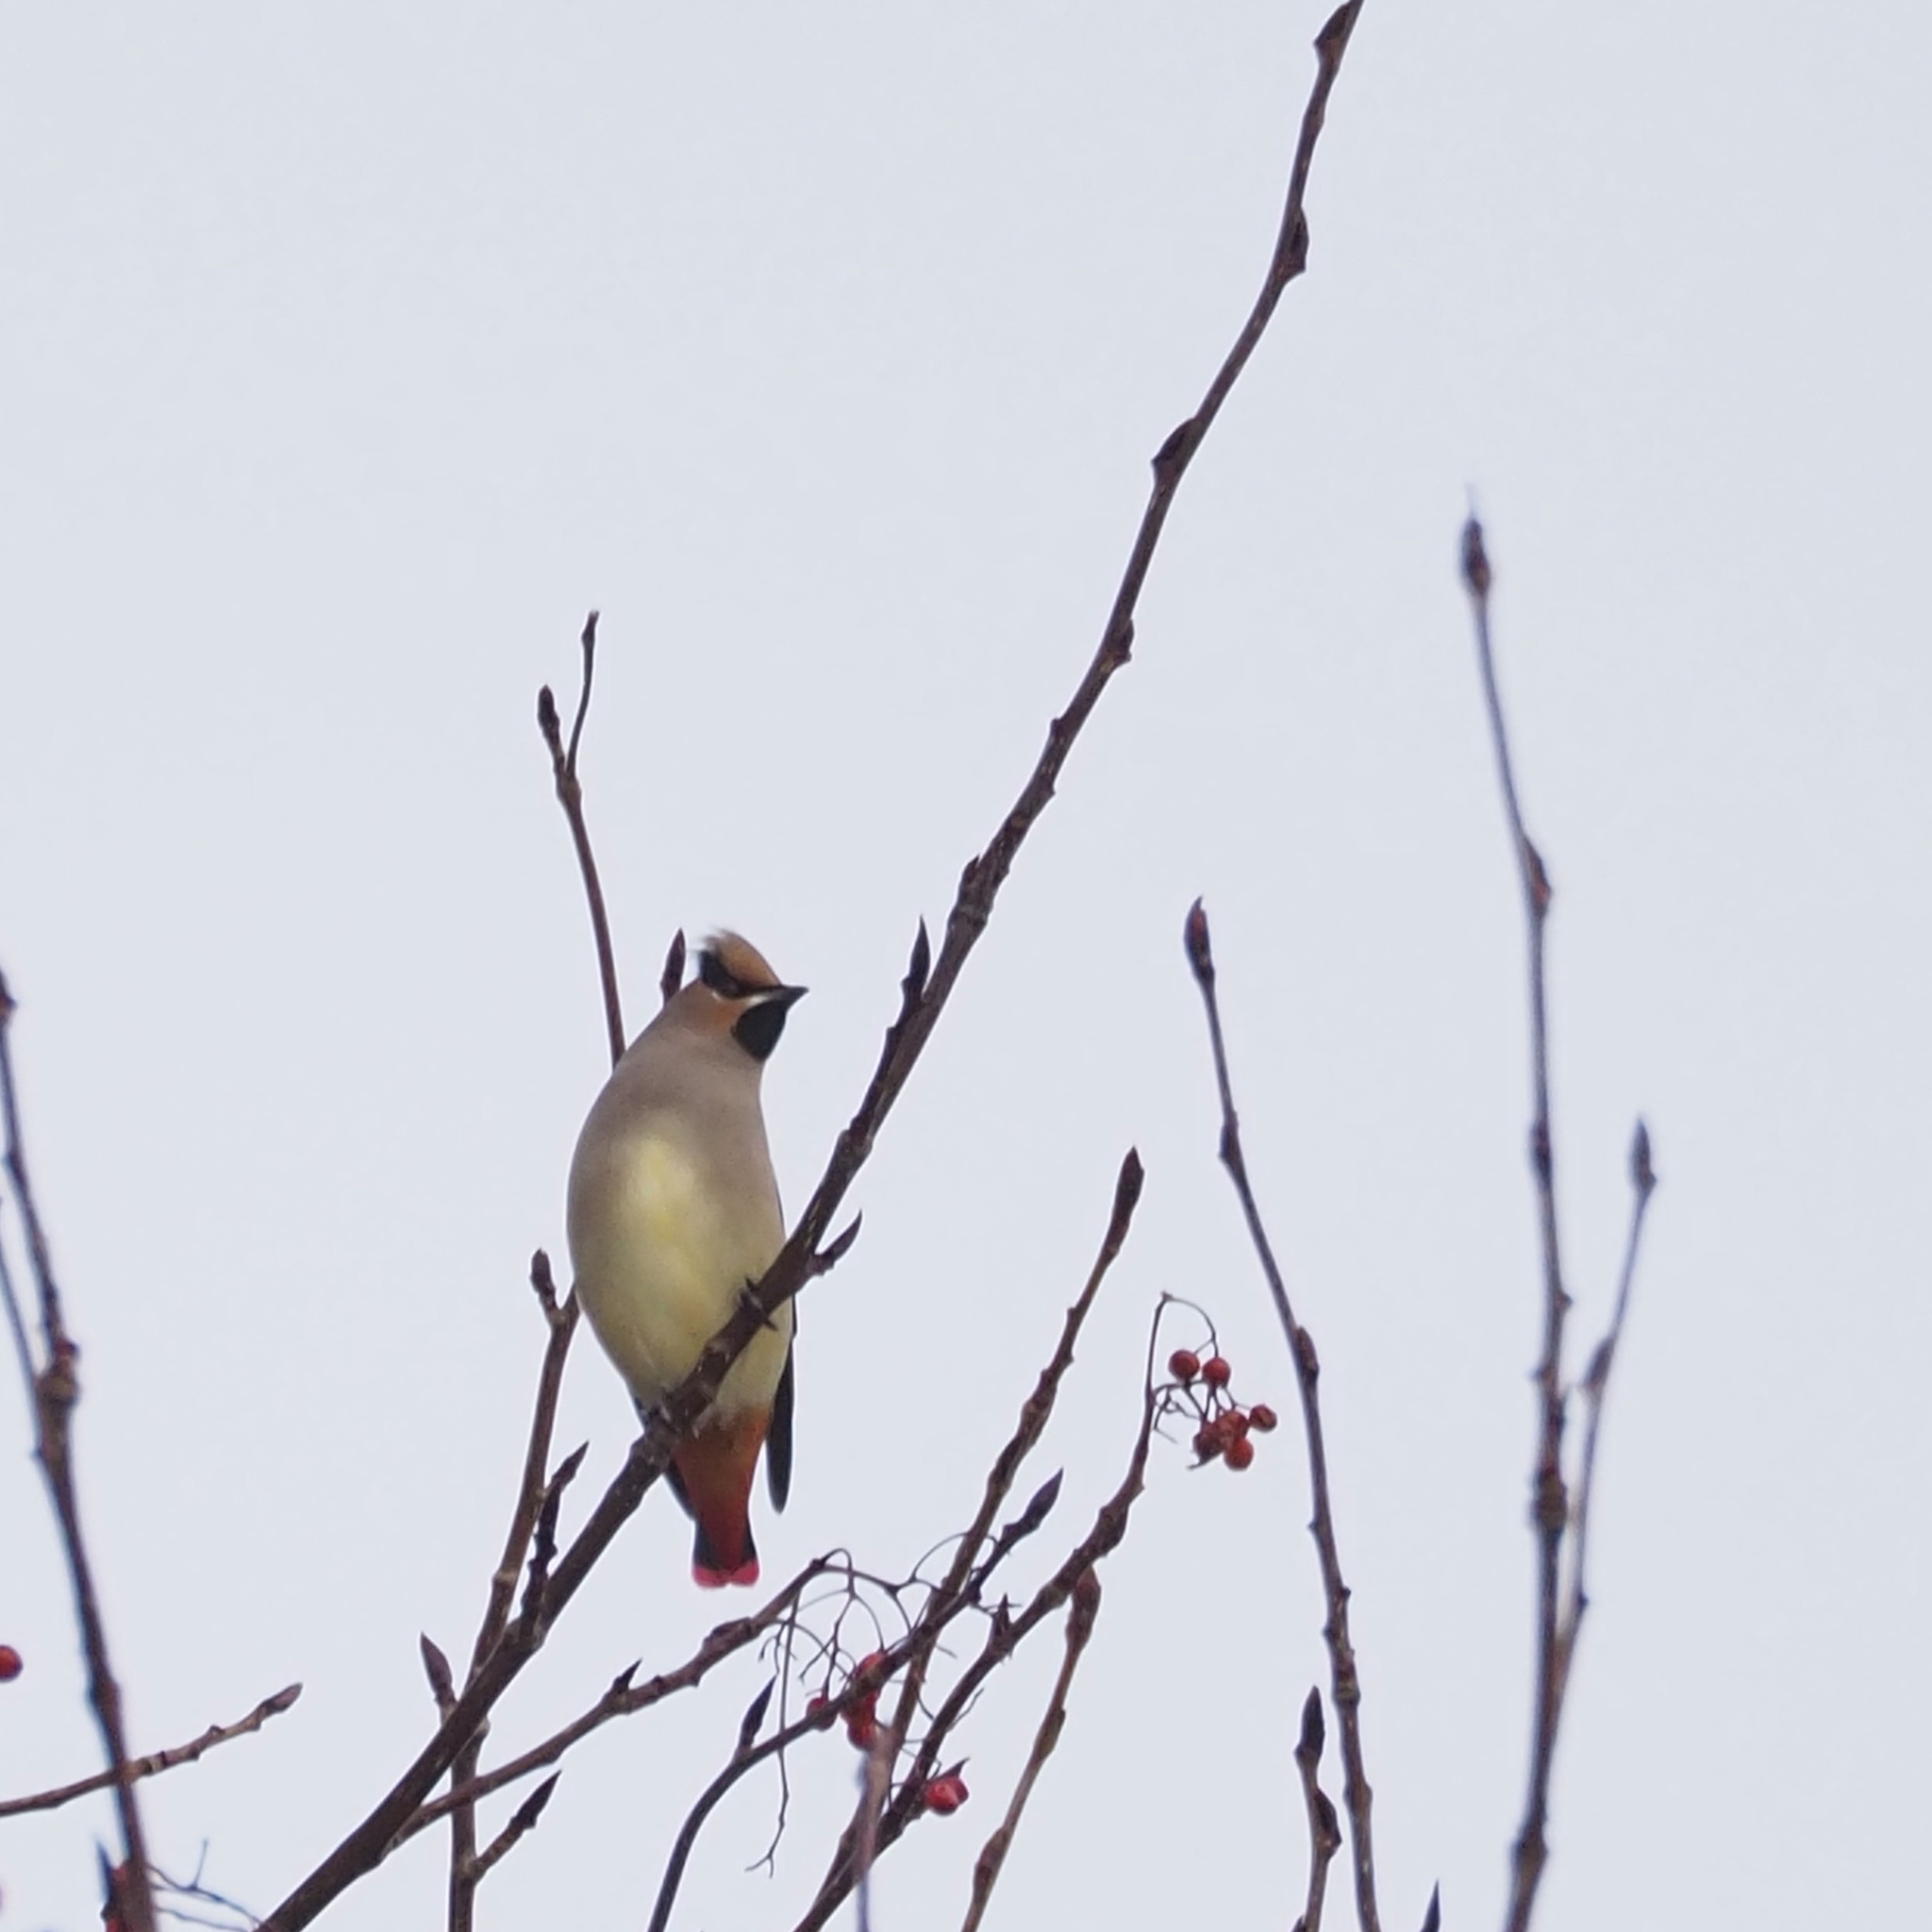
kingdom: Animalia
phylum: Chordata
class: Aves
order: Passeriformes
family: Bombycillidae
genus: Bombycilla
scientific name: Bombycilla japonica
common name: Japanese waxwing
